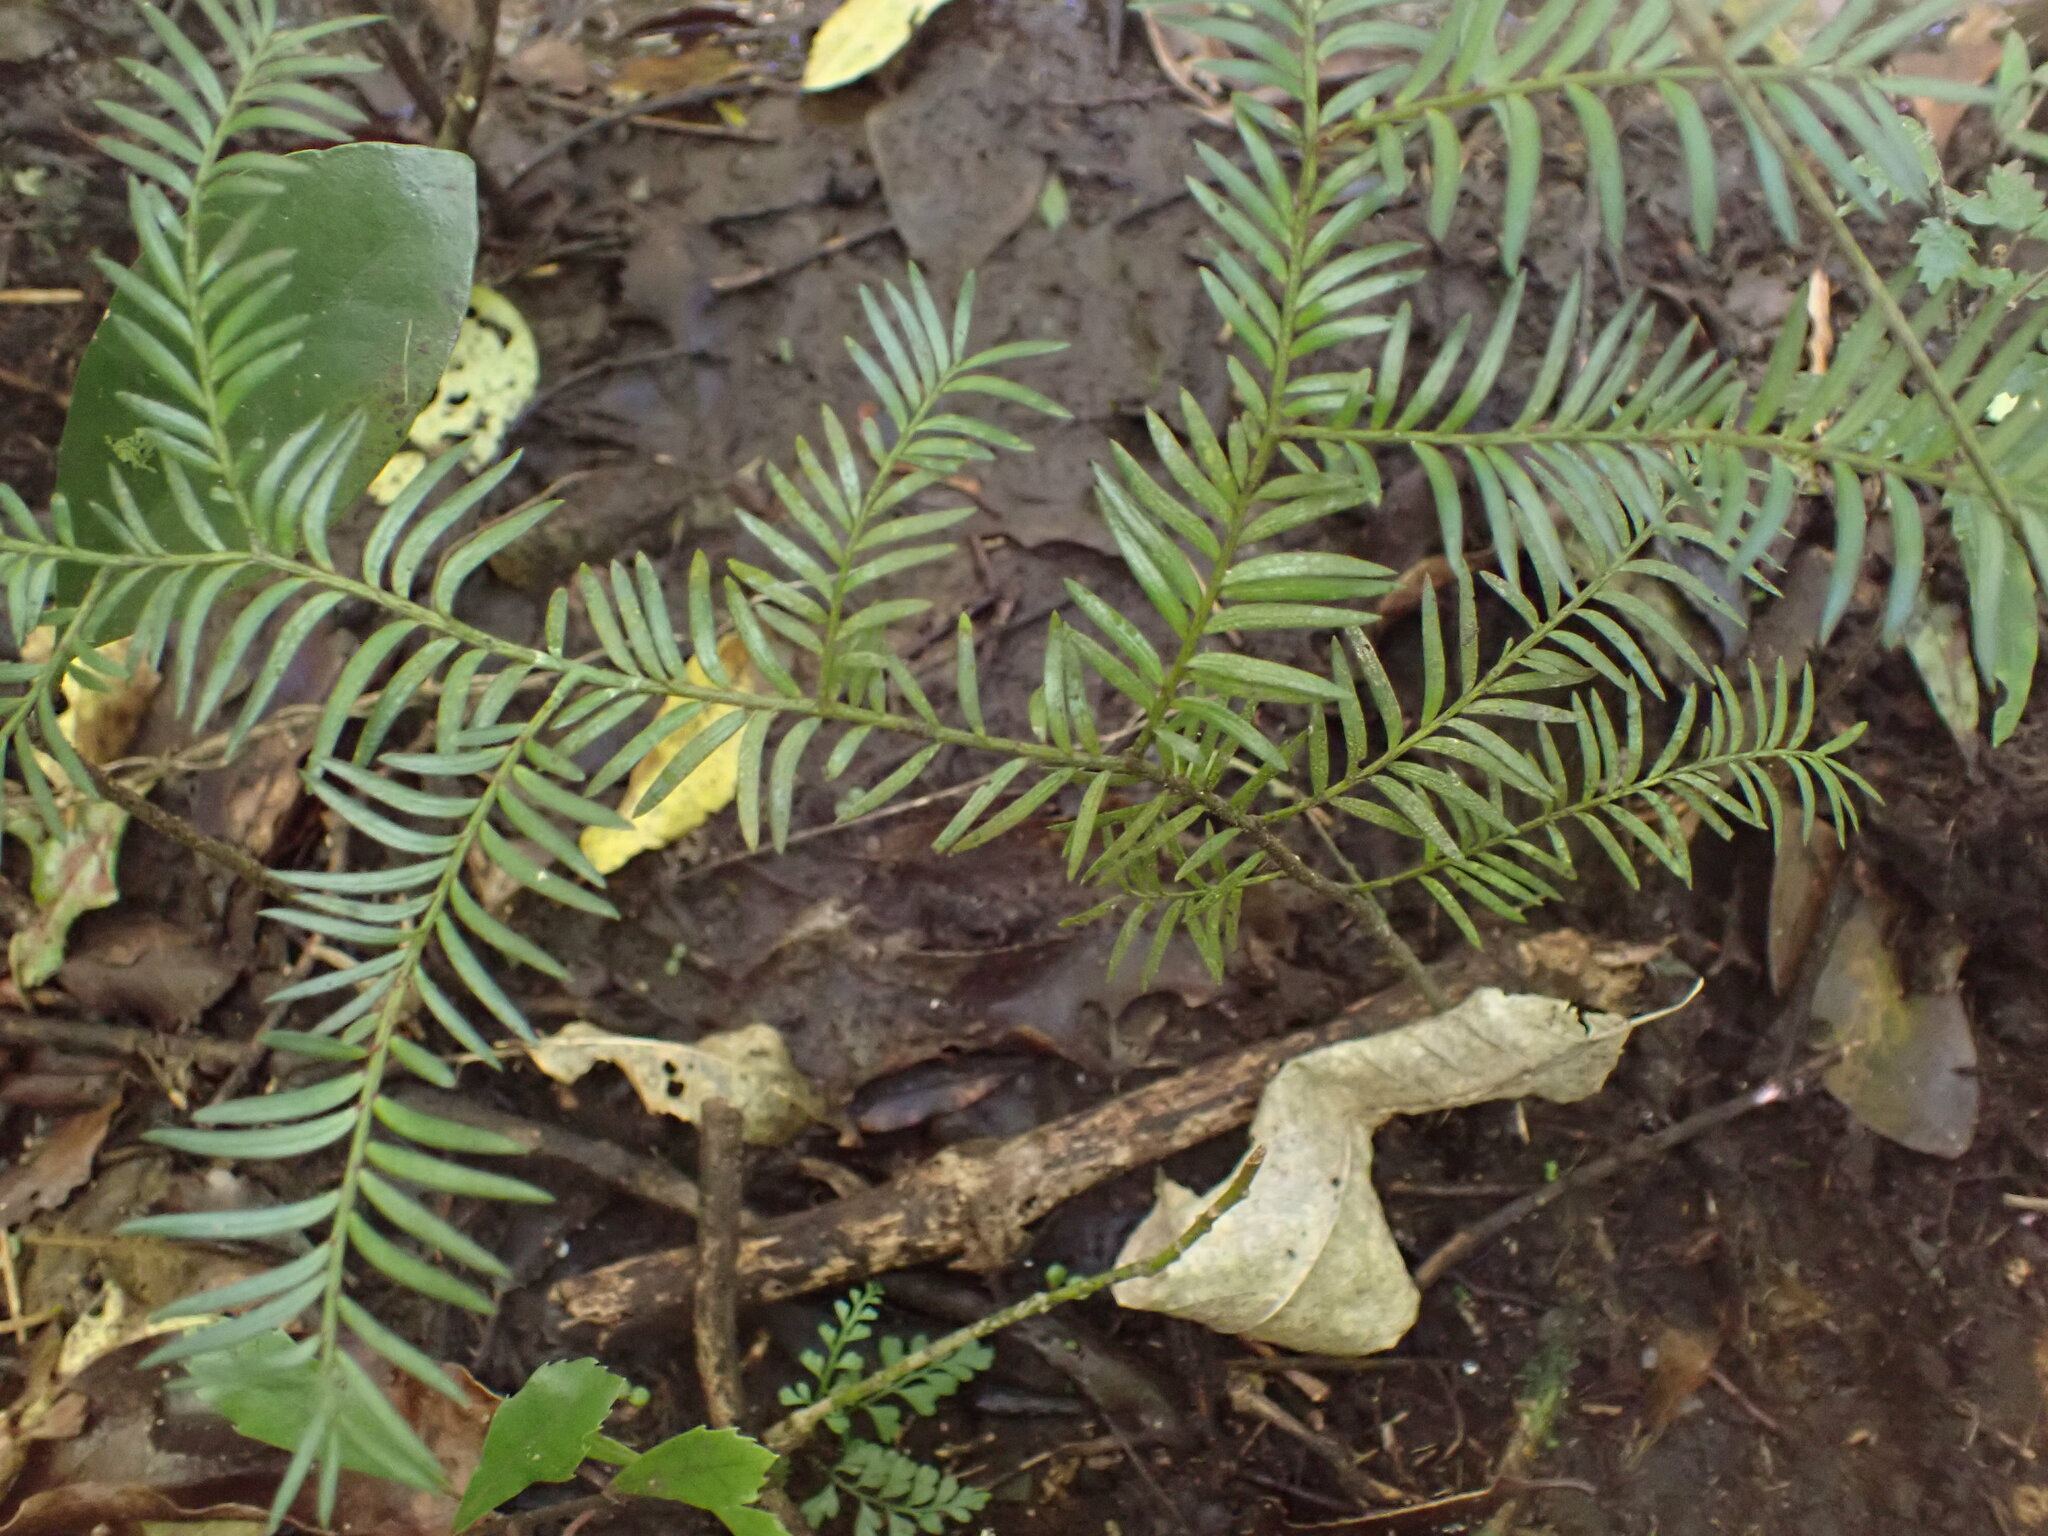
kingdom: Plantae
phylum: Tracheophyta
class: Pinopsida
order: Pinales
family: Podocarpaceae
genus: Prumnopitys
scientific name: Prumnopitys ferruginea
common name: Brown pine
